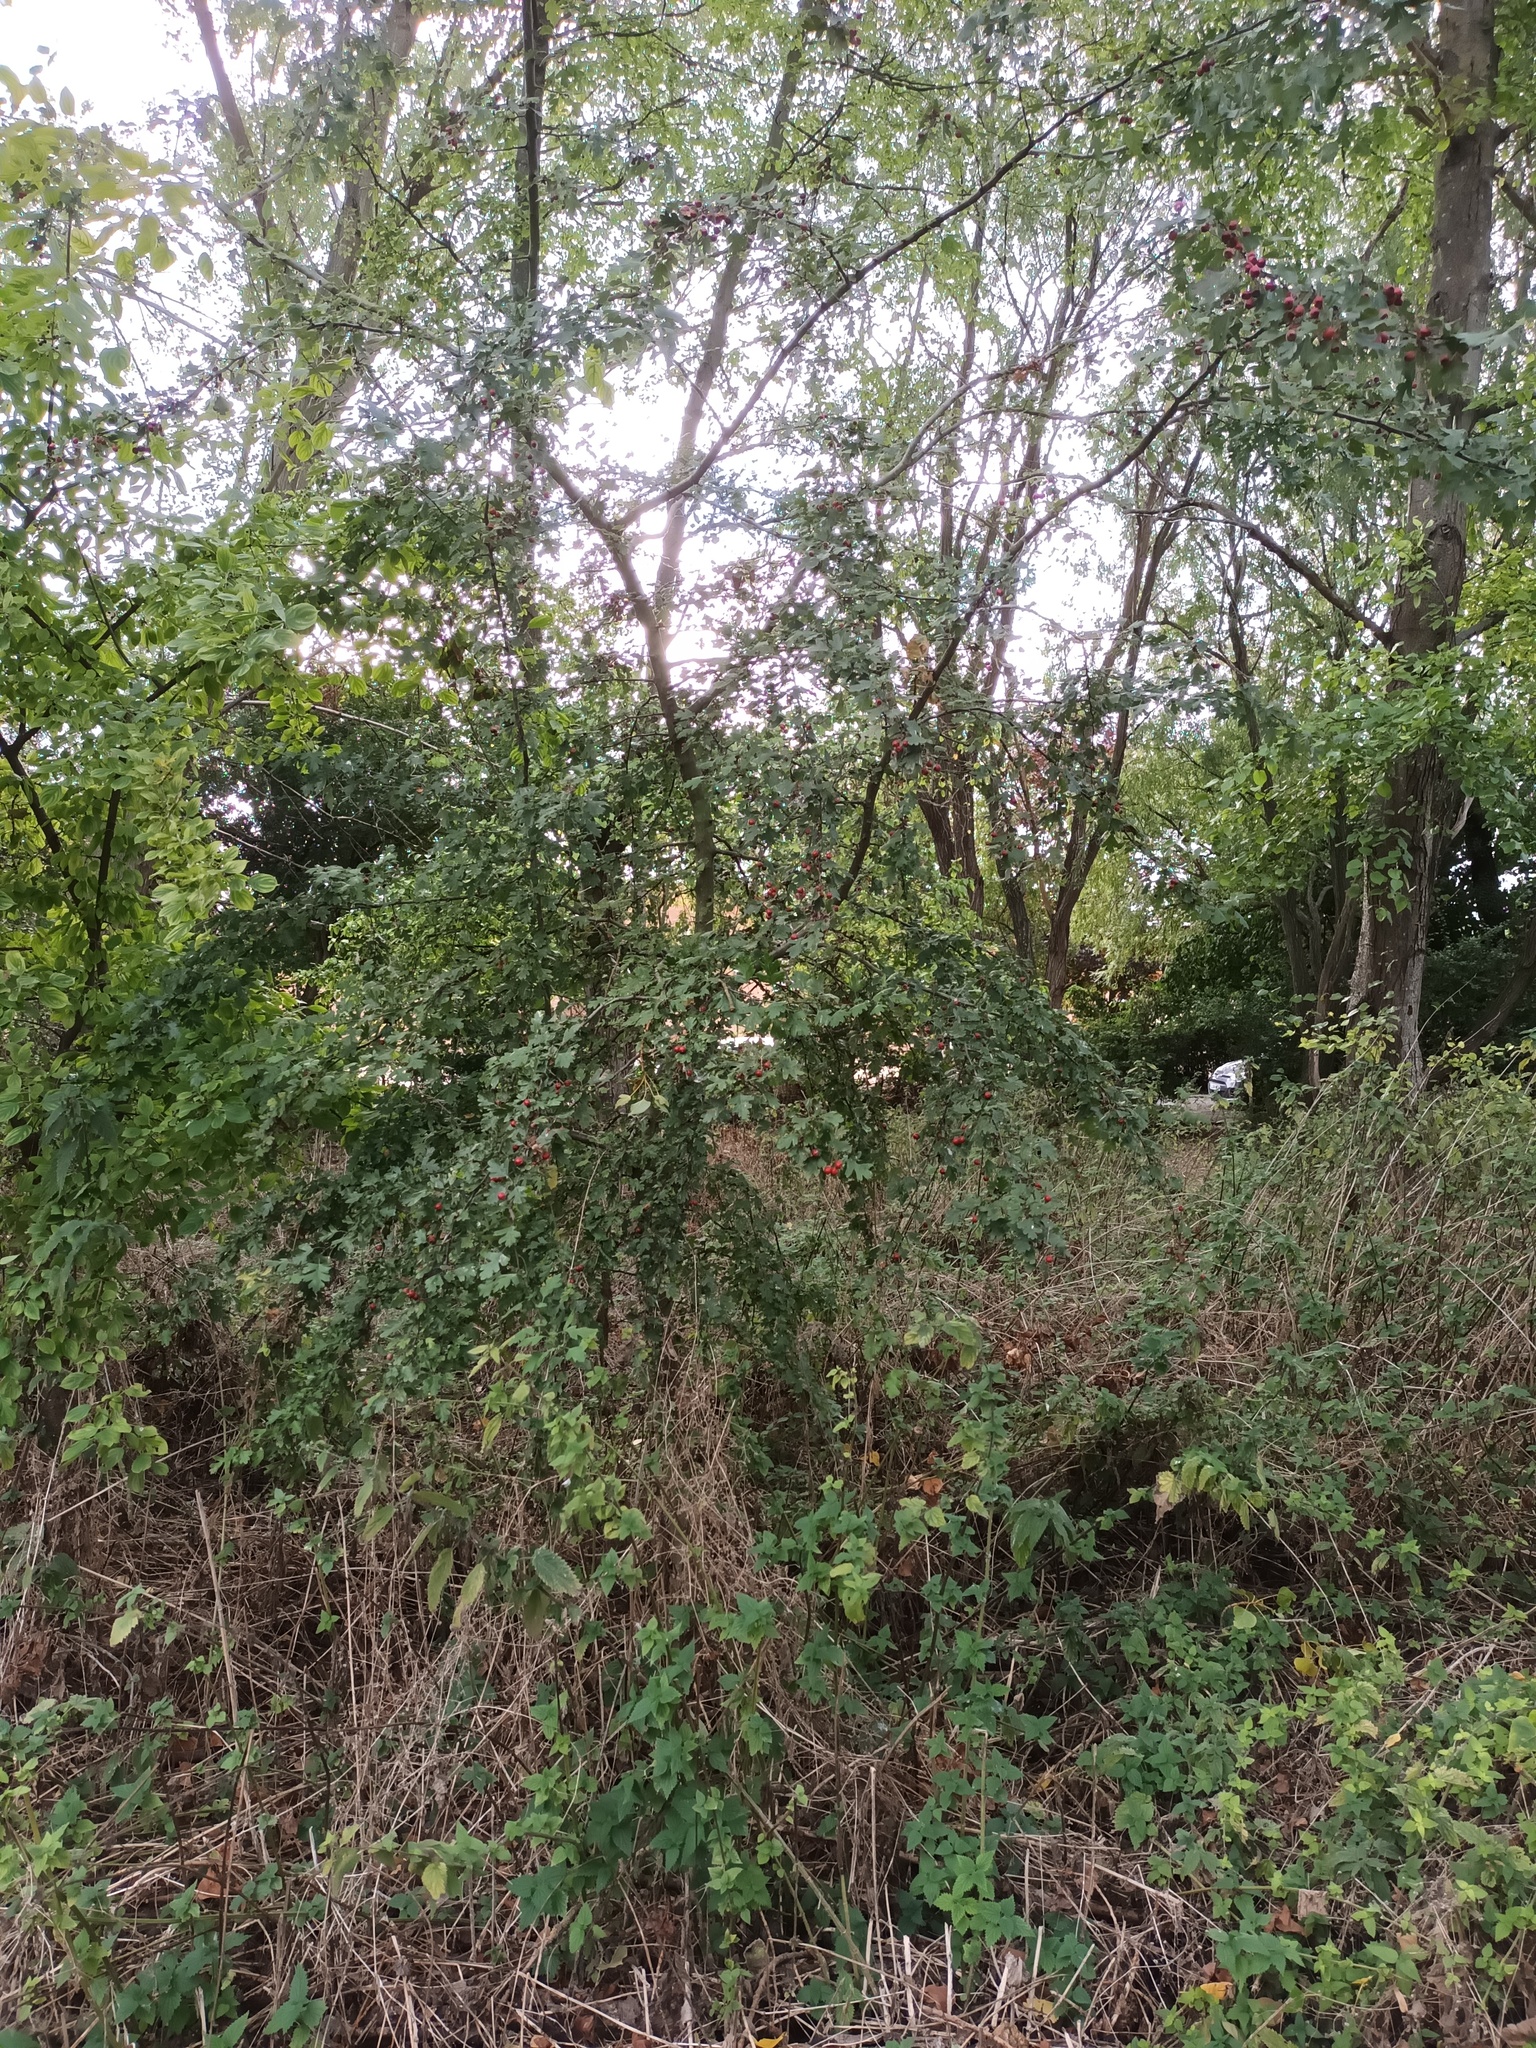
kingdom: Plantae
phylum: Tracheophyta
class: Magnoliopsida
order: Rosales
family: Rosaceae
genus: Crataegus
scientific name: Crataegus monogyna
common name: Hawthorn
